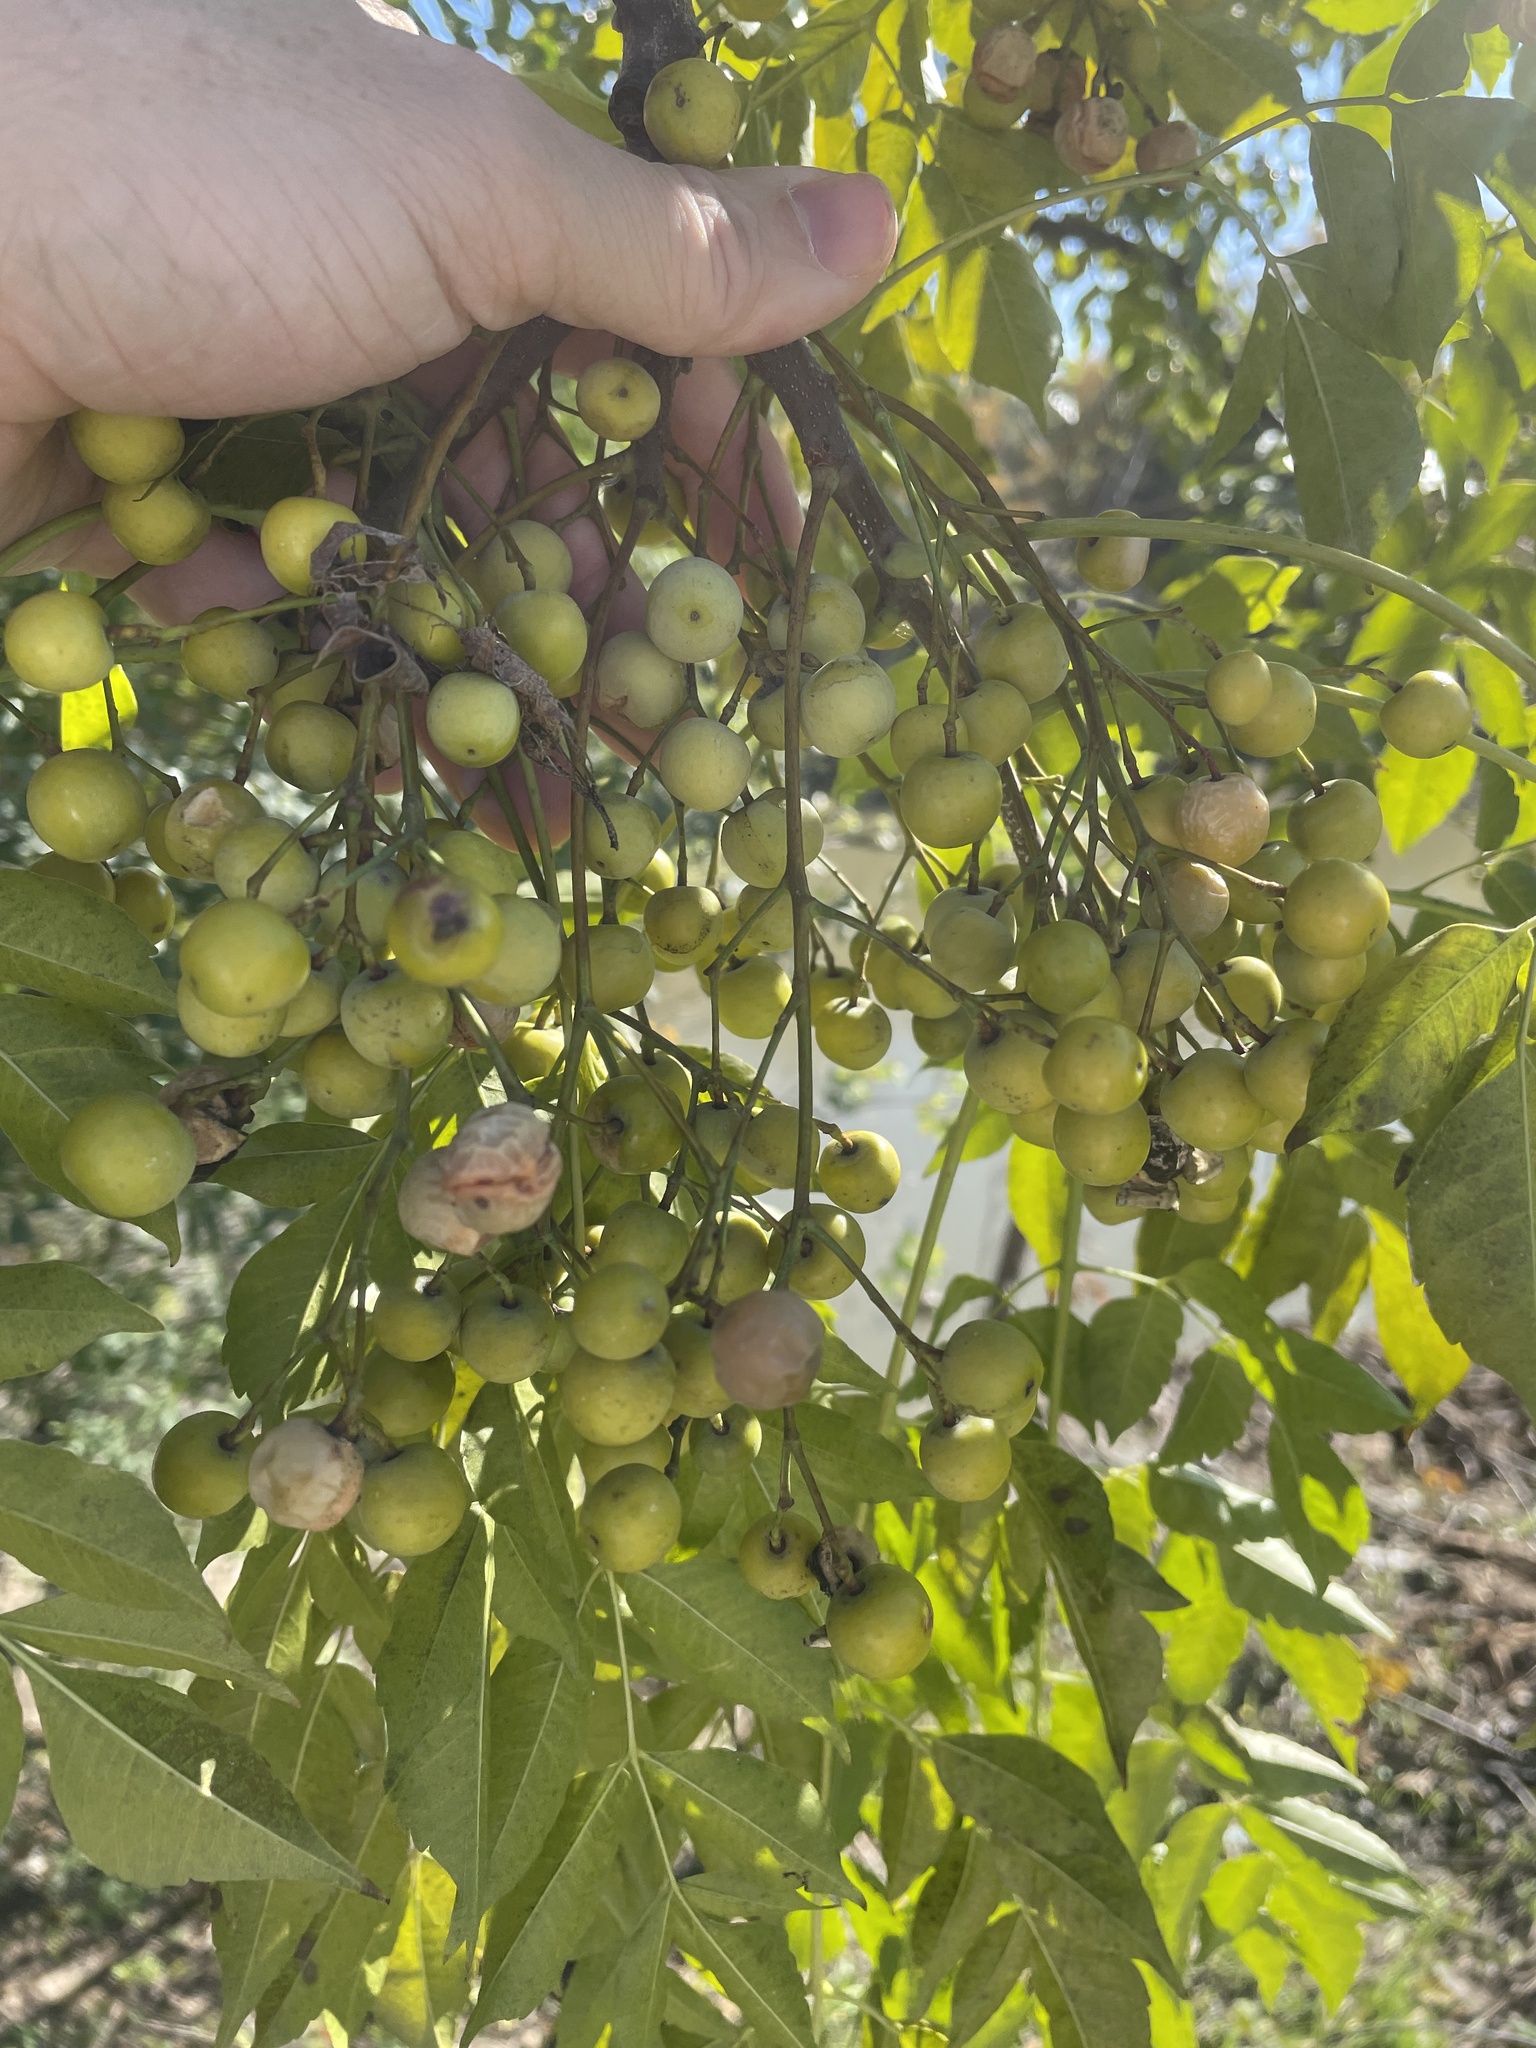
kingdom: Plantae
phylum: Tracheophyta
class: Magnoliopsida
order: Sapindales
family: Meliaceae
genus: Melia
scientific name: Melia azedarach
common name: Chinaberrytree
